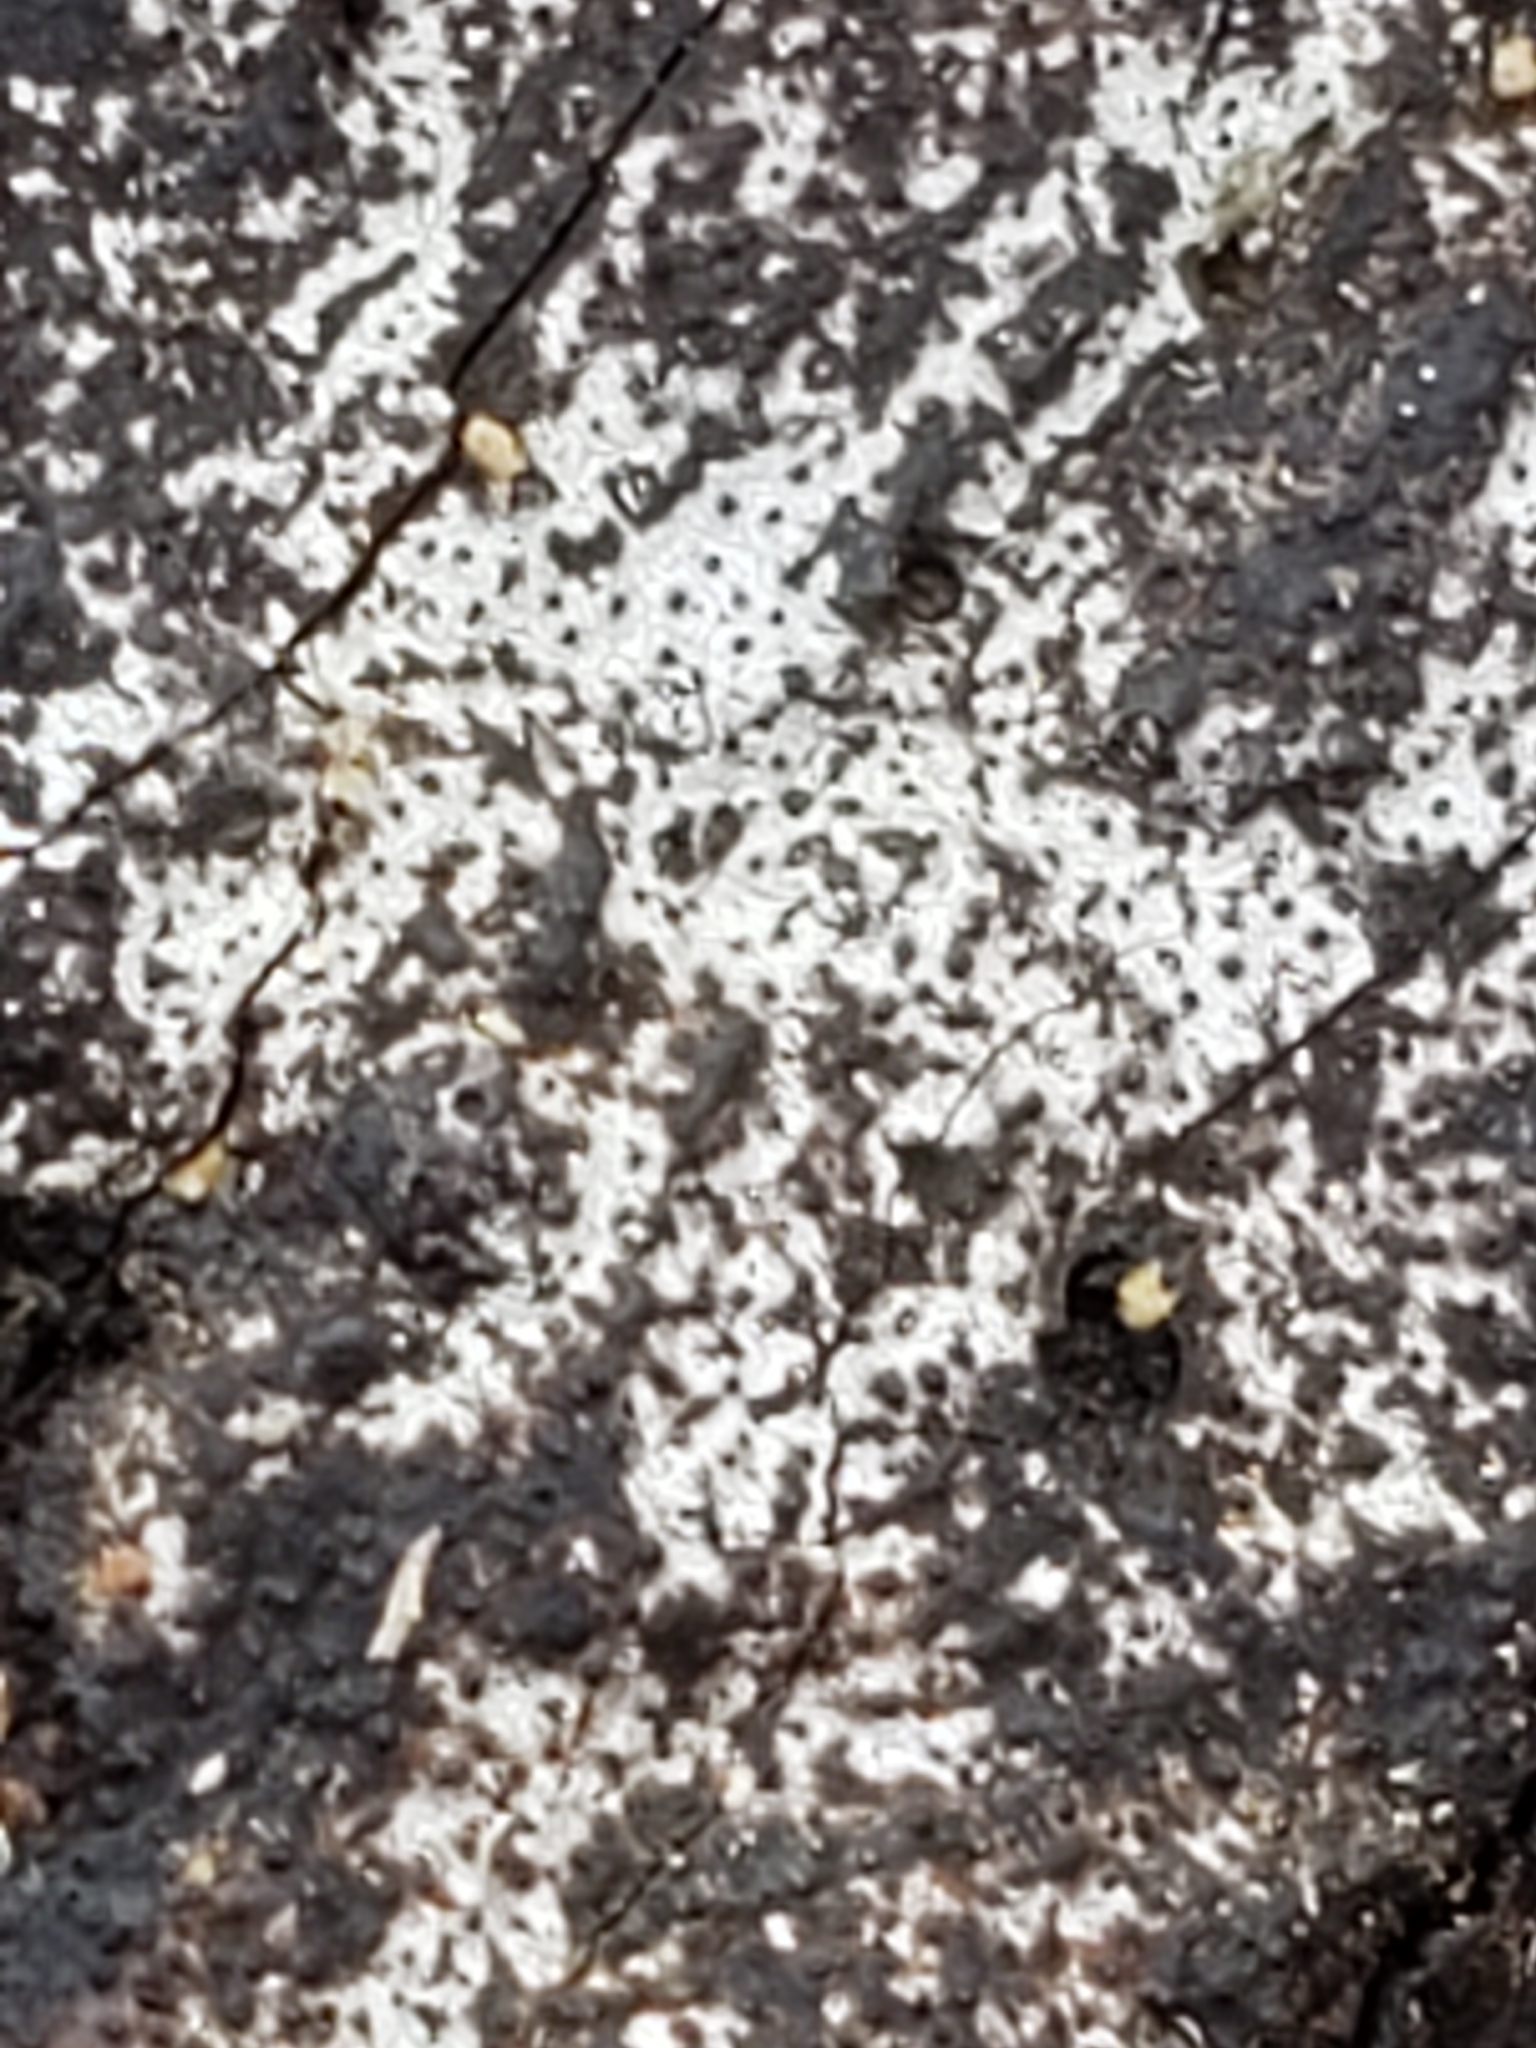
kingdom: Fungi
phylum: Ascomycota
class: Sordariomycetes
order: Xylariales
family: Graphostromataceae
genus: Biscogniauxia
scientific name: Biscogniauxia atropunctata
